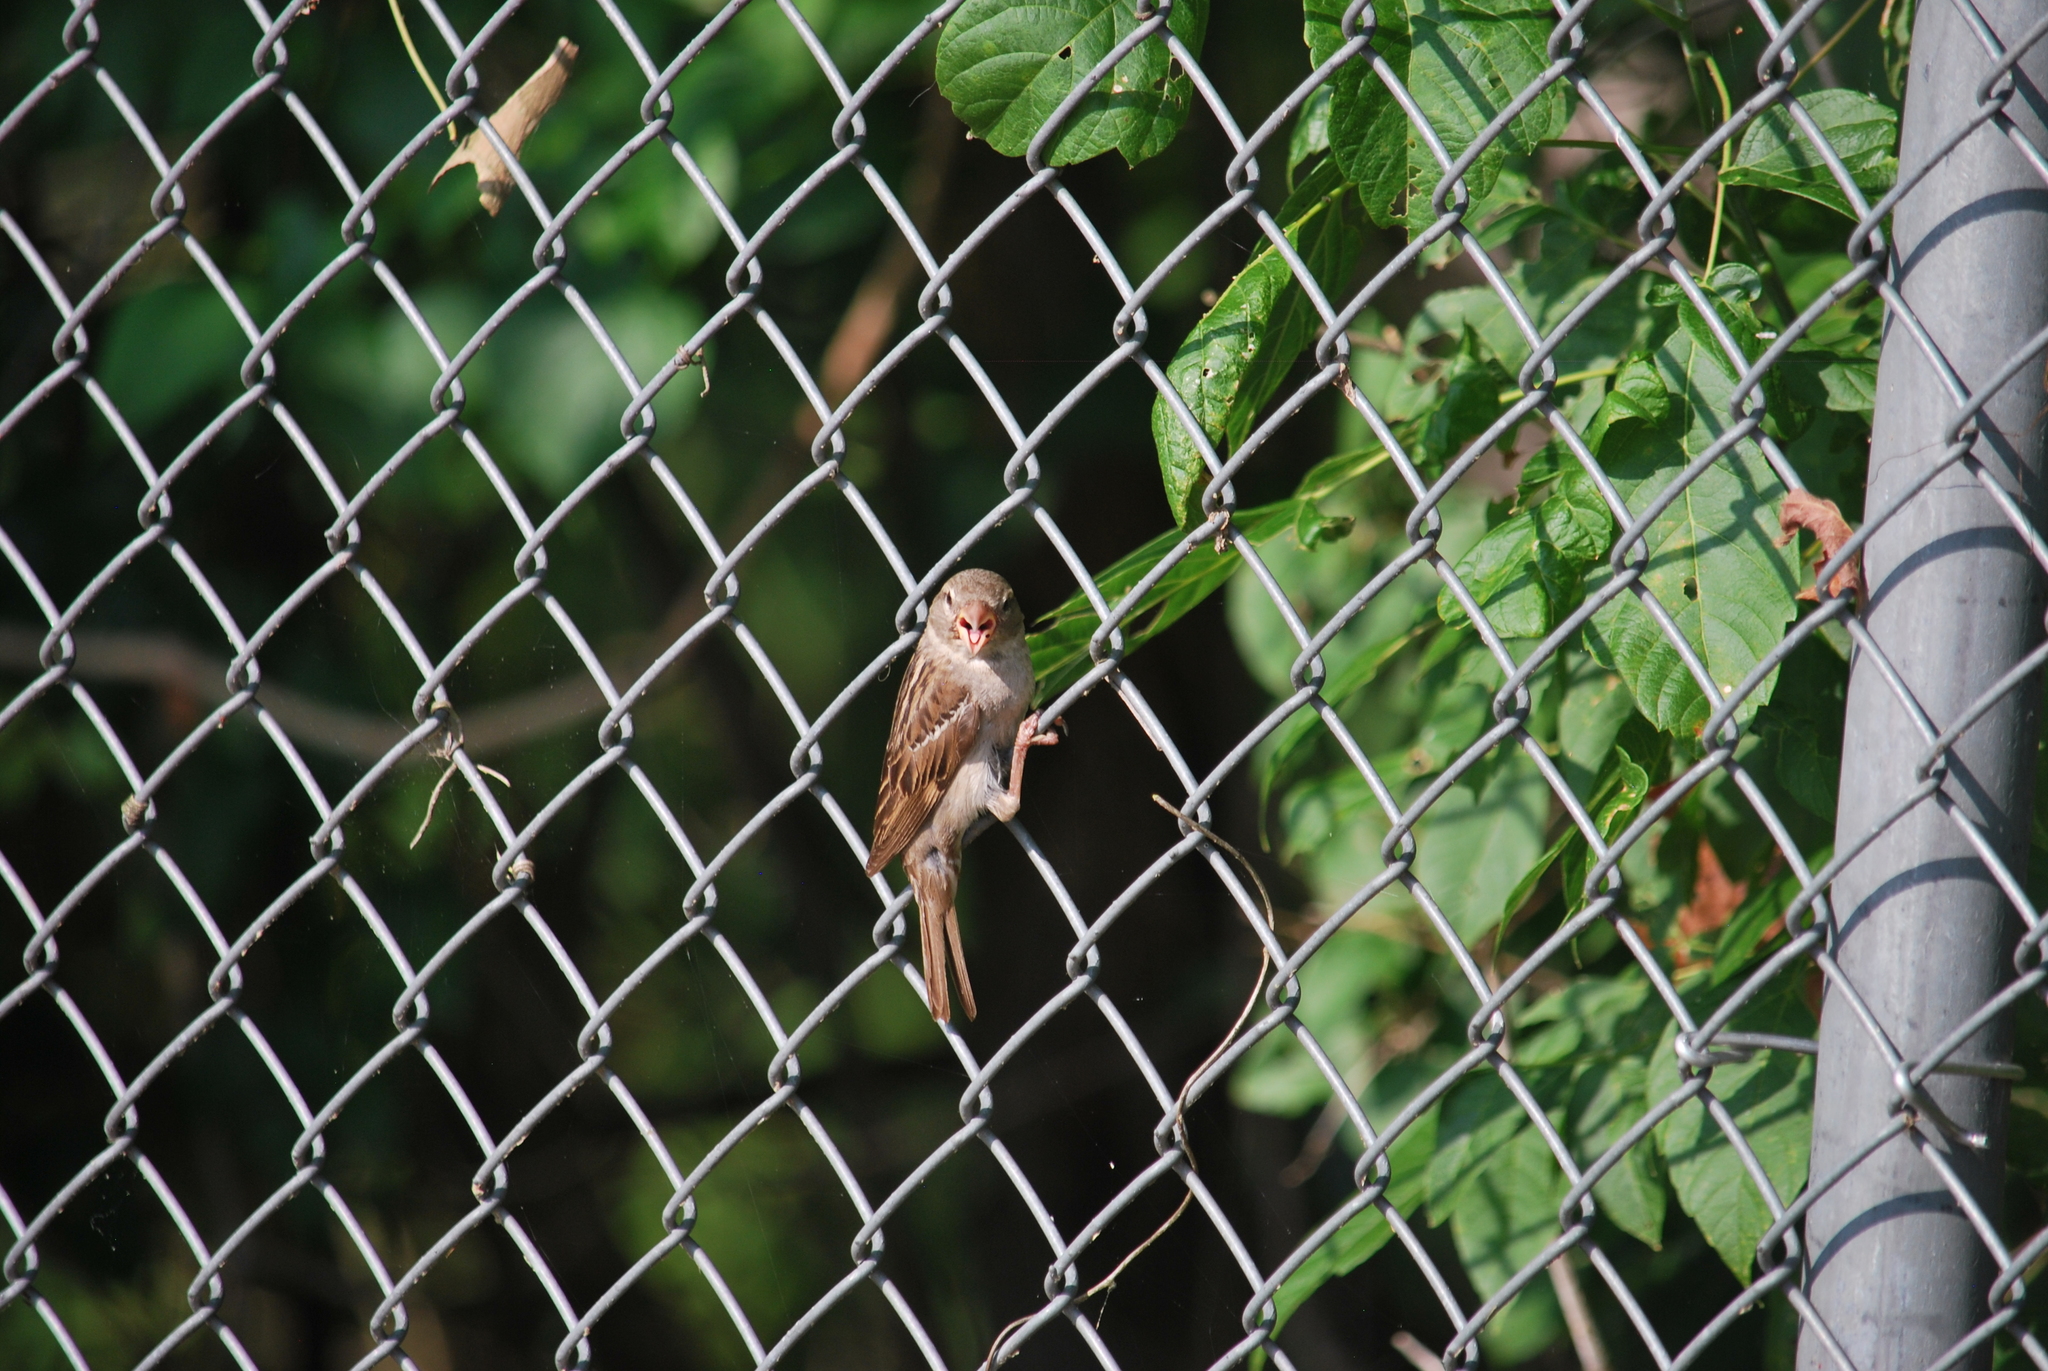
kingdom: Animalia
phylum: Chordata
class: Aves
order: Passeriformes
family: Passeridae
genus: Passer
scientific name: Passer domesticus
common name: House sparrow
